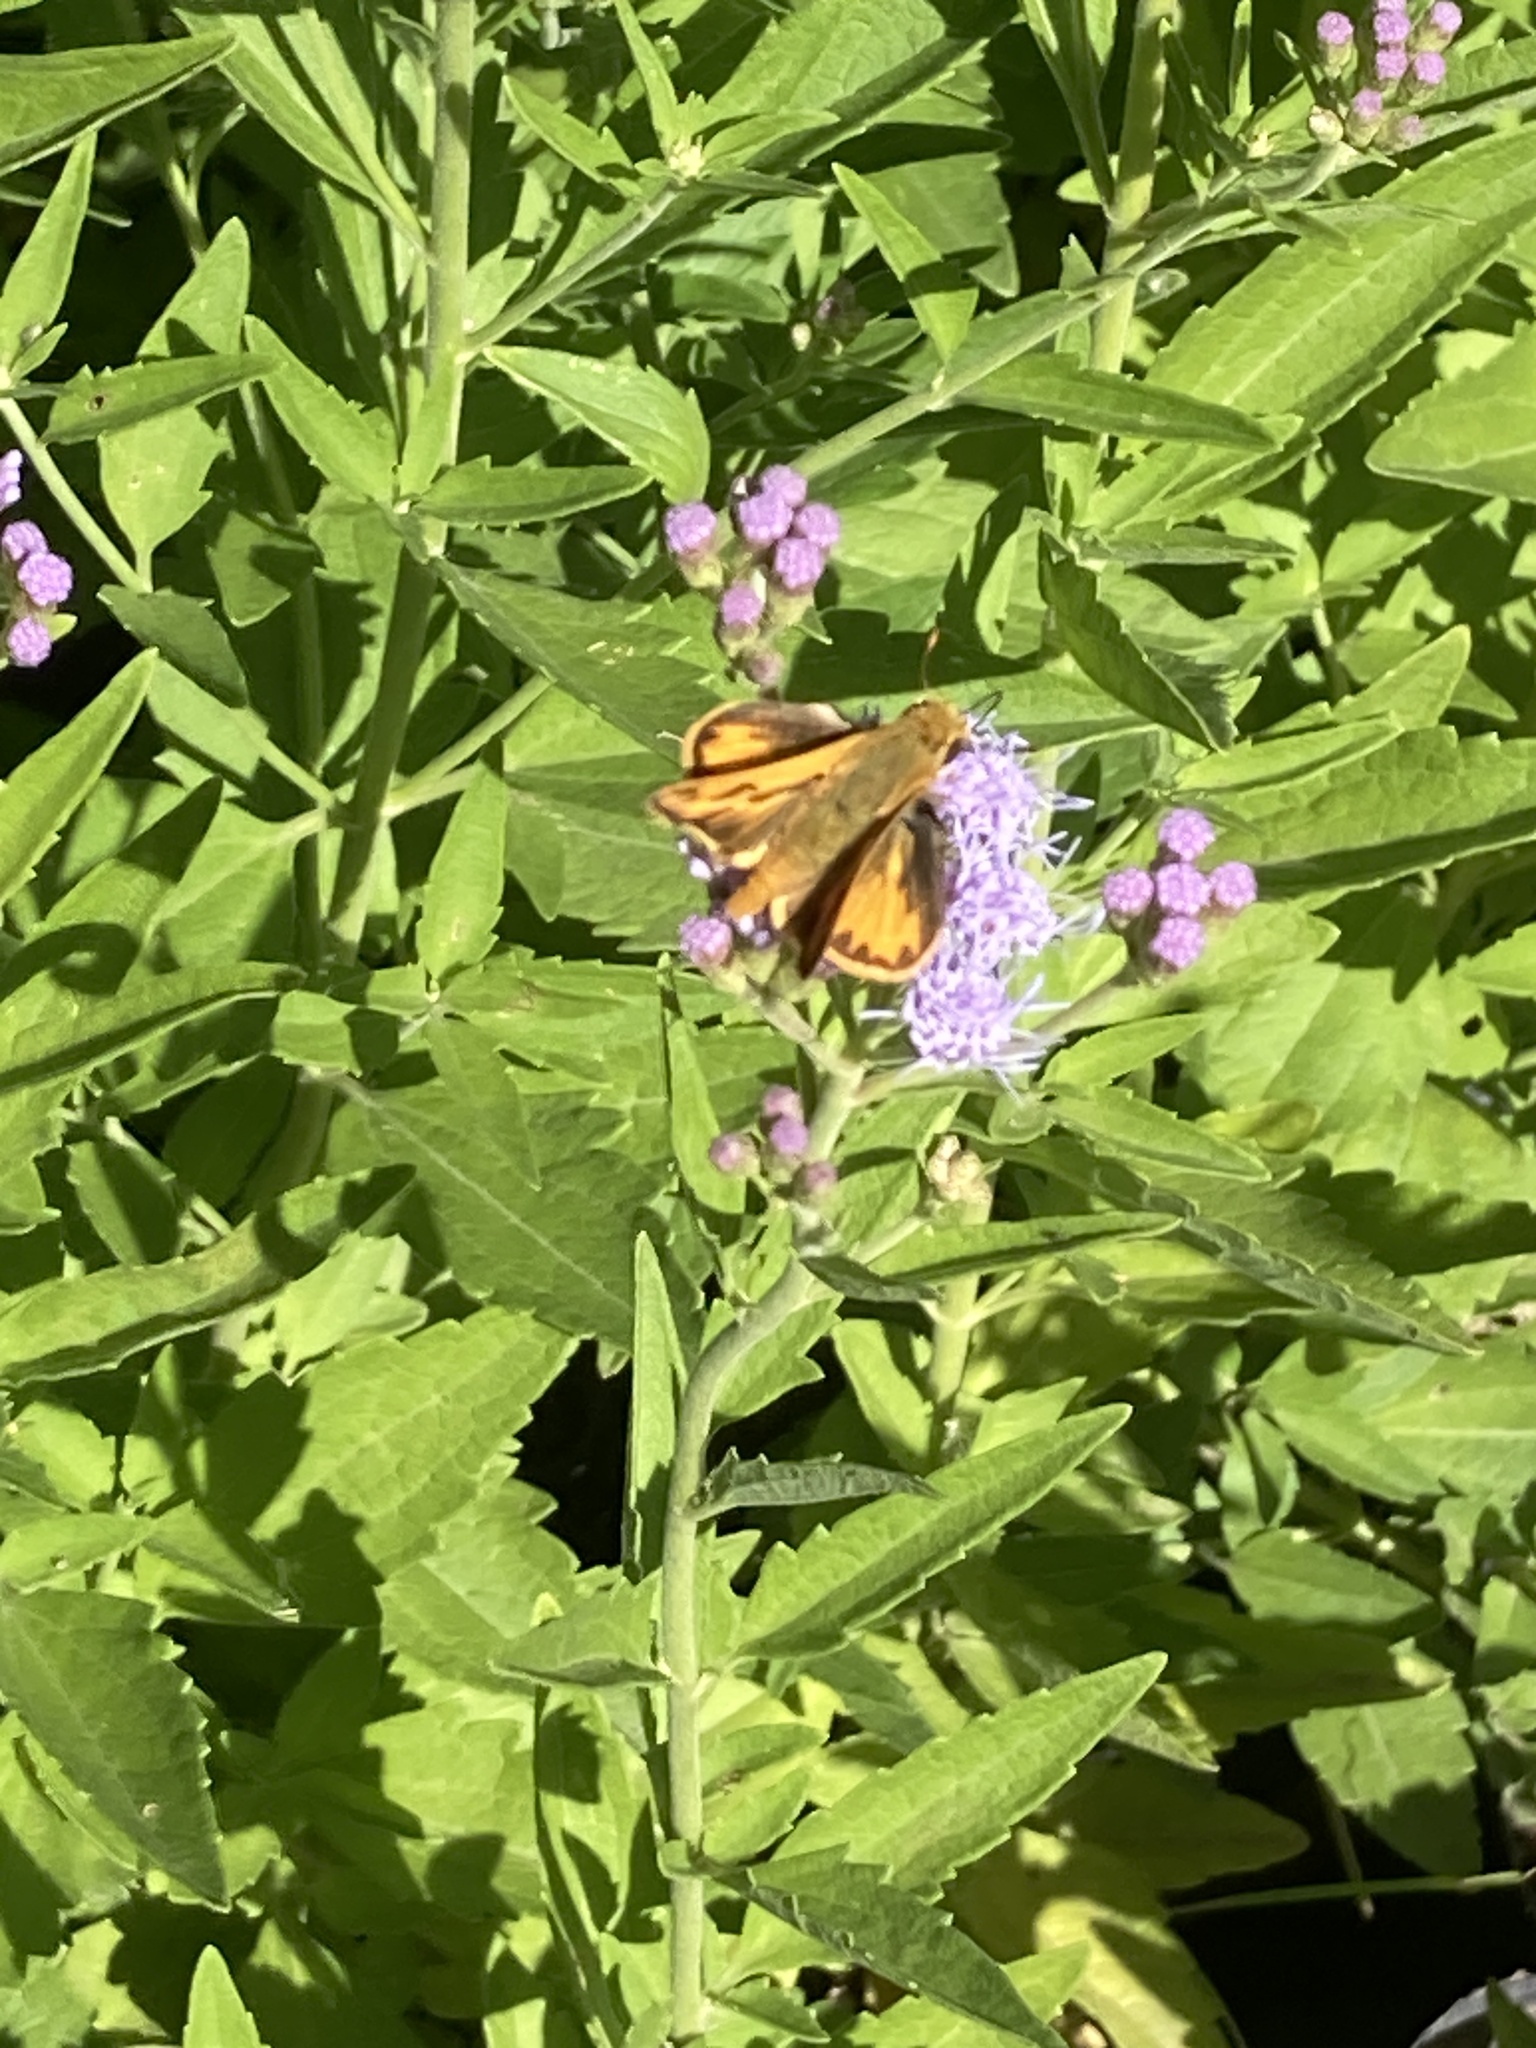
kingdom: Animalia
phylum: Arthropoda
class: Insecta
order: Lepidoptera
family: Hesperiidae
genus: Hylephila
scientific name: Hylephila phyleus
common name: Fiery skipper
